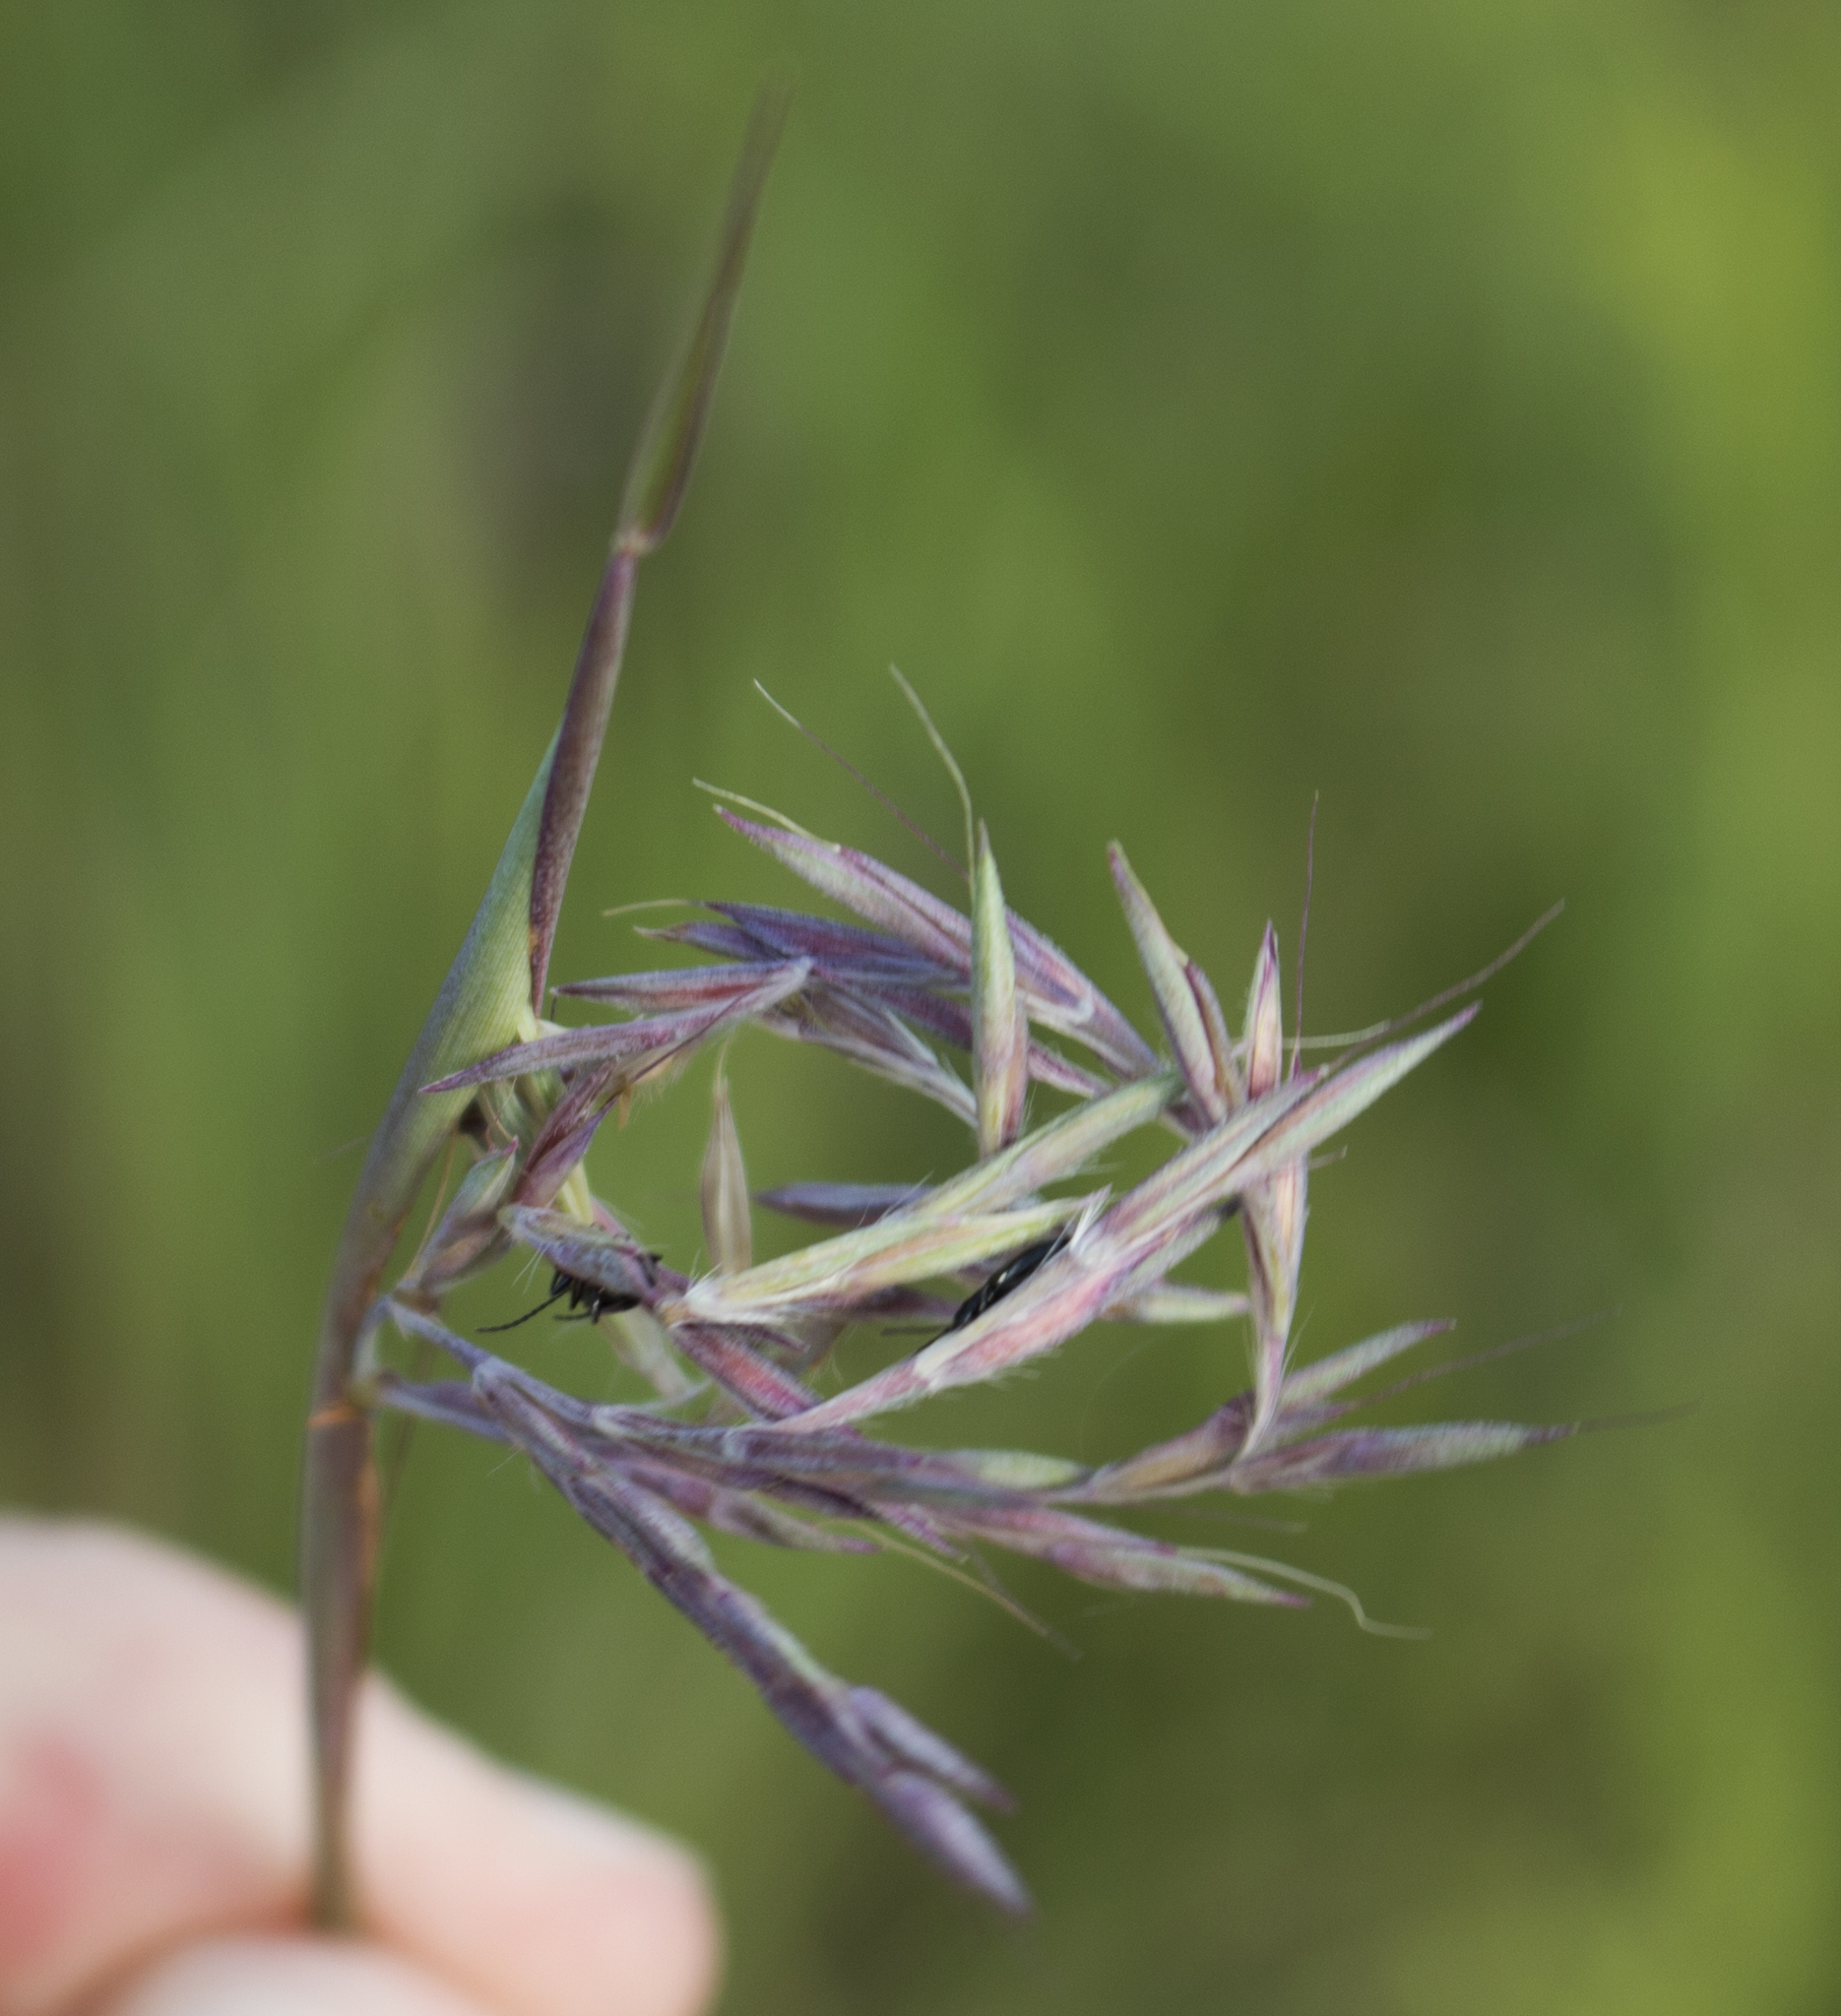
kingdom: Plantae
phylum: Tracheophyta
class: Liliopsida
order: Poales
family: Poaceae
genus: Andropogon
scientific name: Andropogon gerardi
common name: Big bluestem
